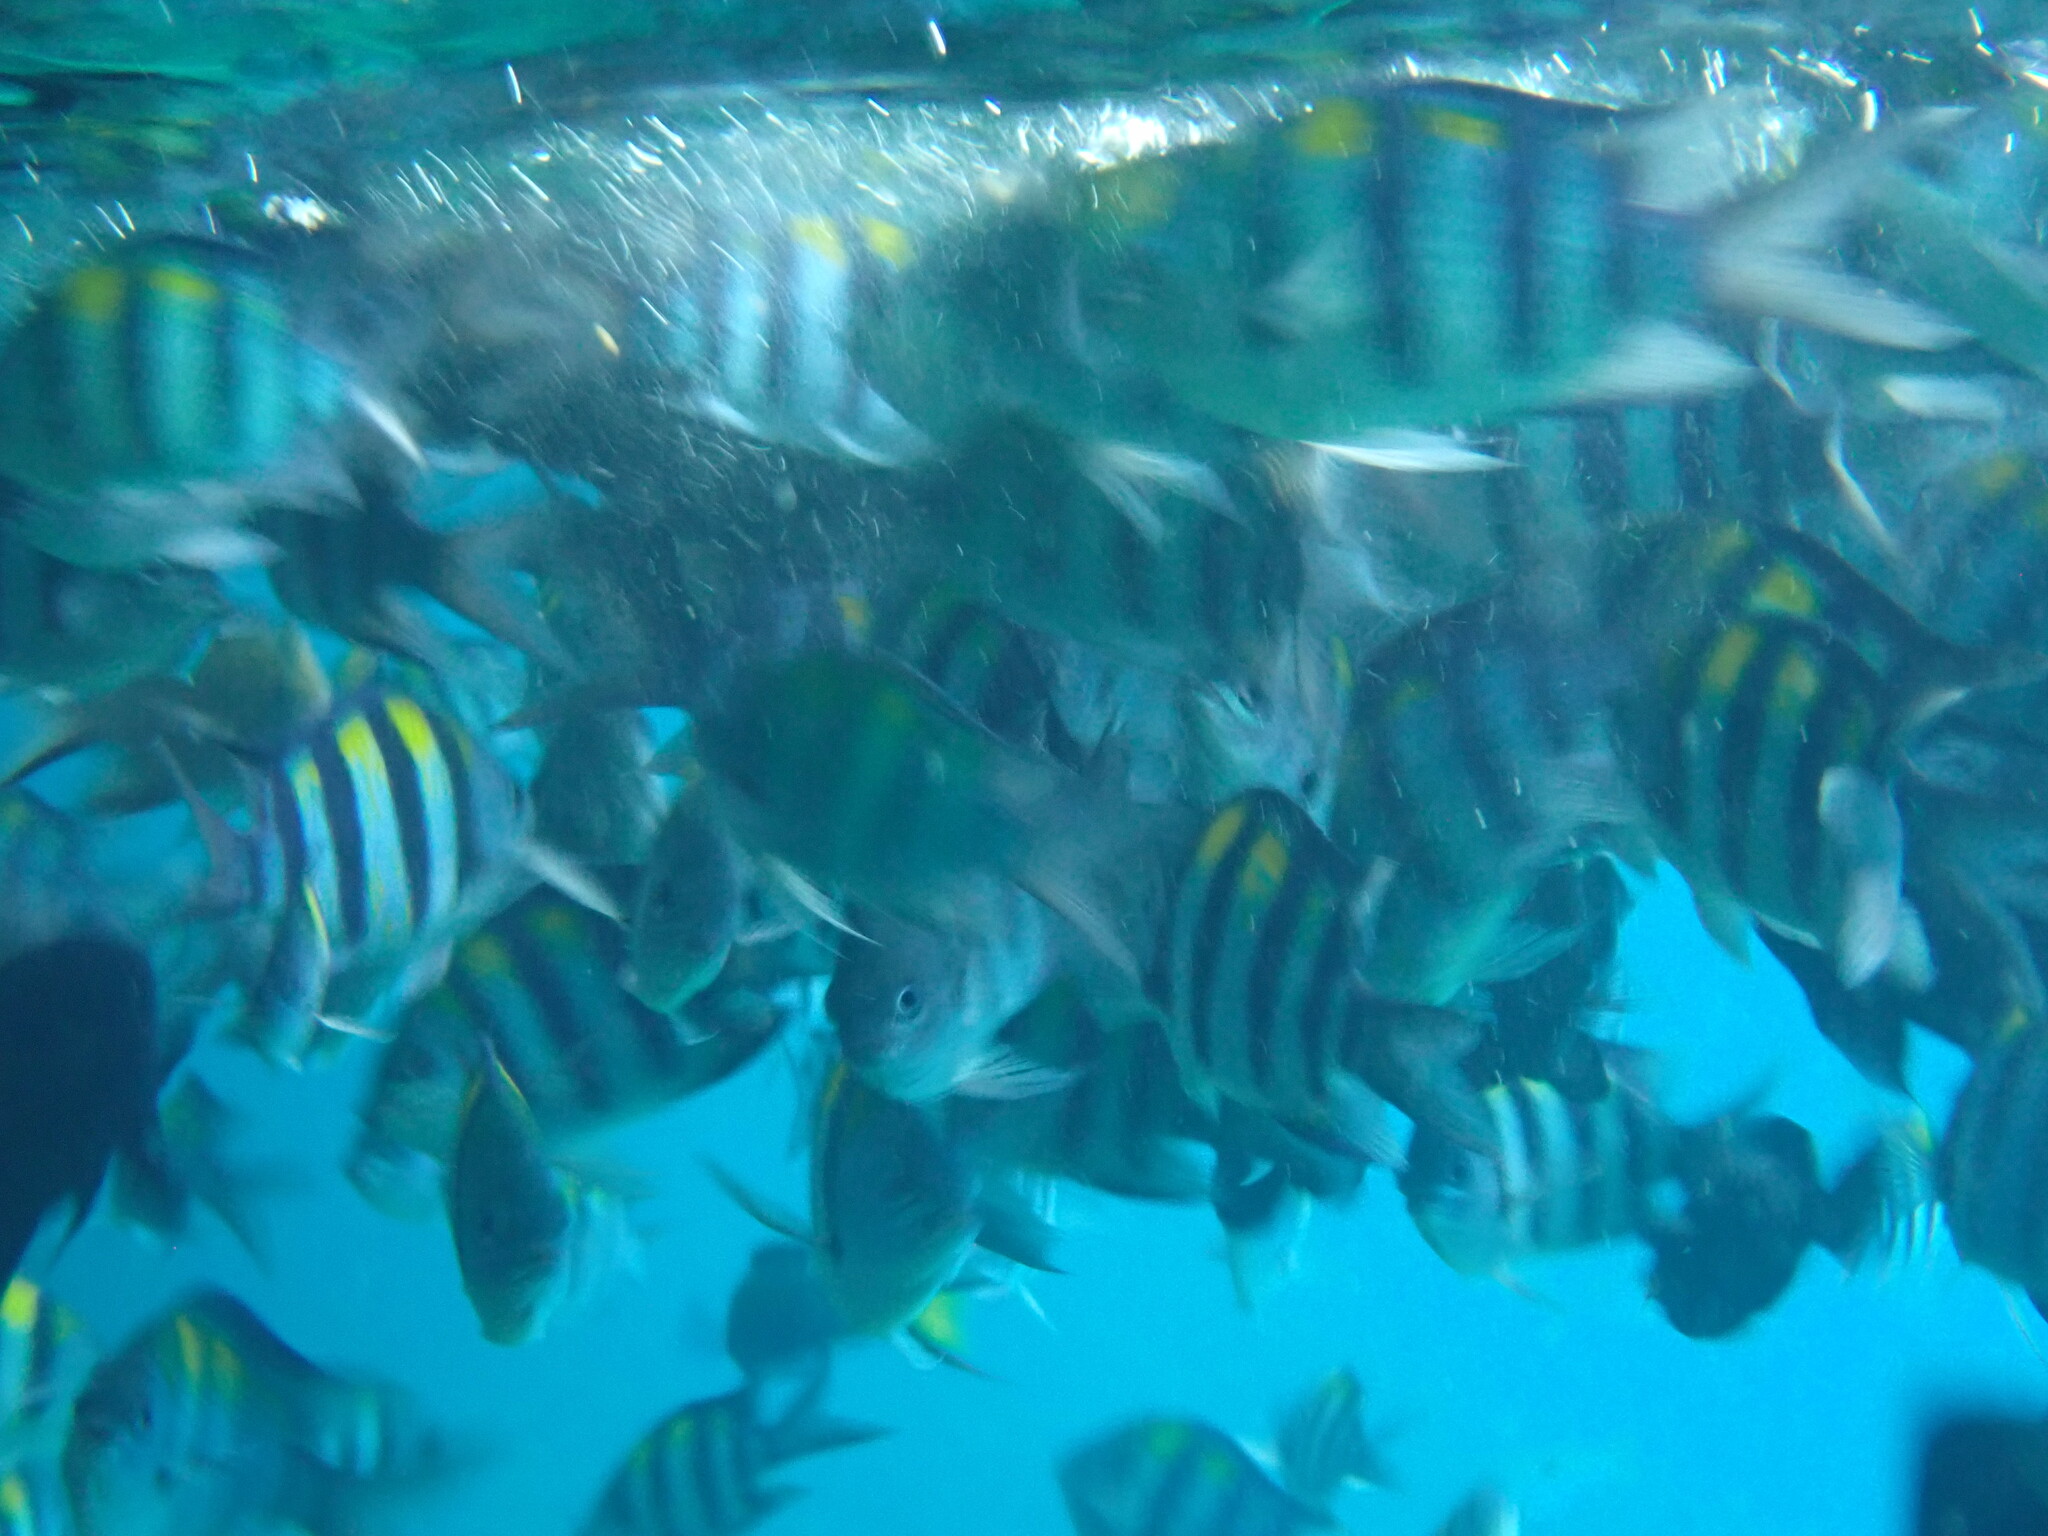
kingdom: Animalia
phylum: Chordata
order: Perciformes
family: Pomacentridae
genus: Abudefduf
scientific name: Abudefduf vaigiensis
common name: Indo-pacific sergeant
